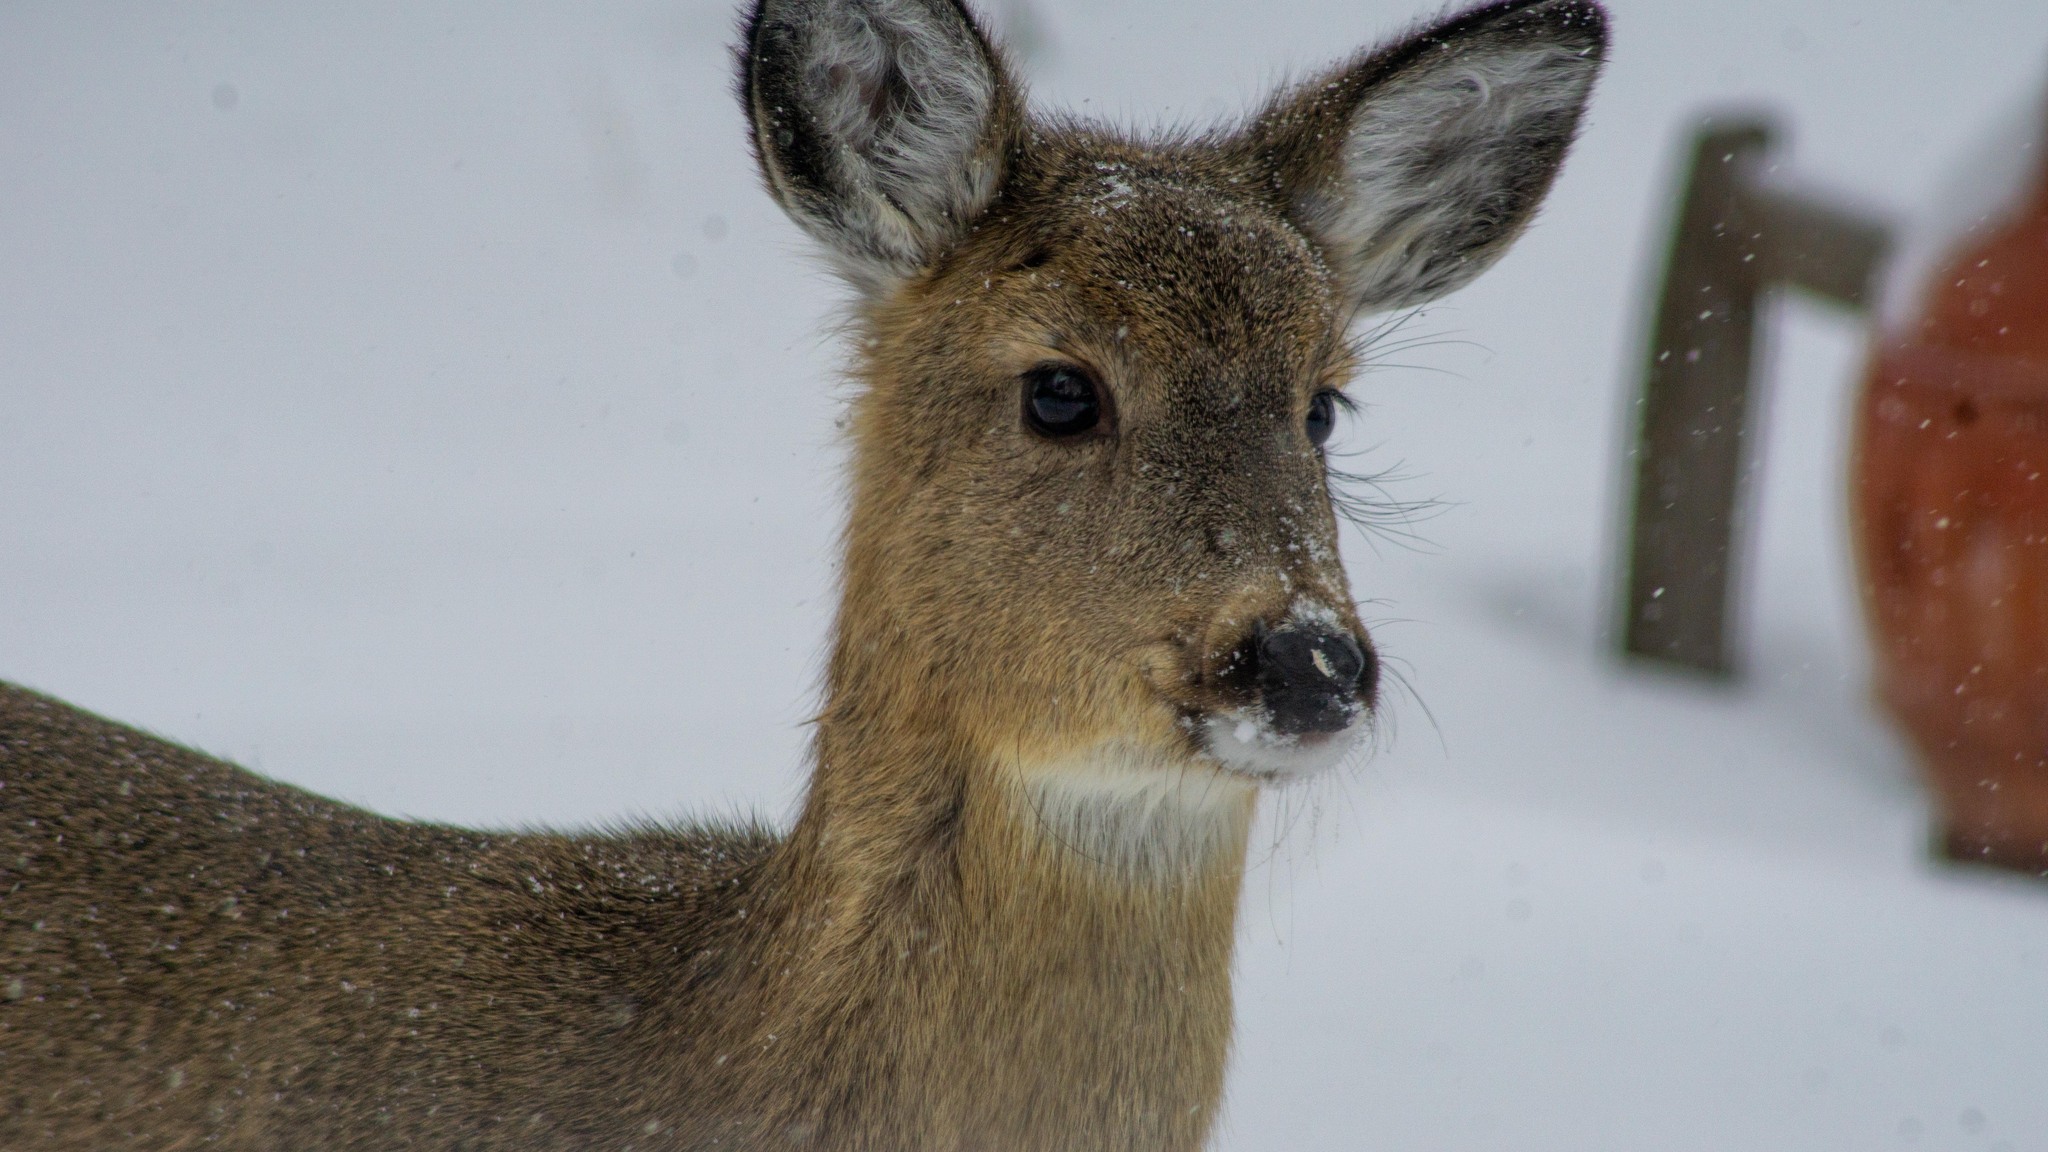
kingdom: Animalia
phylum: Chordata
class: Mammalia
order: Artiodactyla
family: Cervidae
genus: Odocoileus
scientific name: Odocoileus virginianus
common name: White-tailed deer
